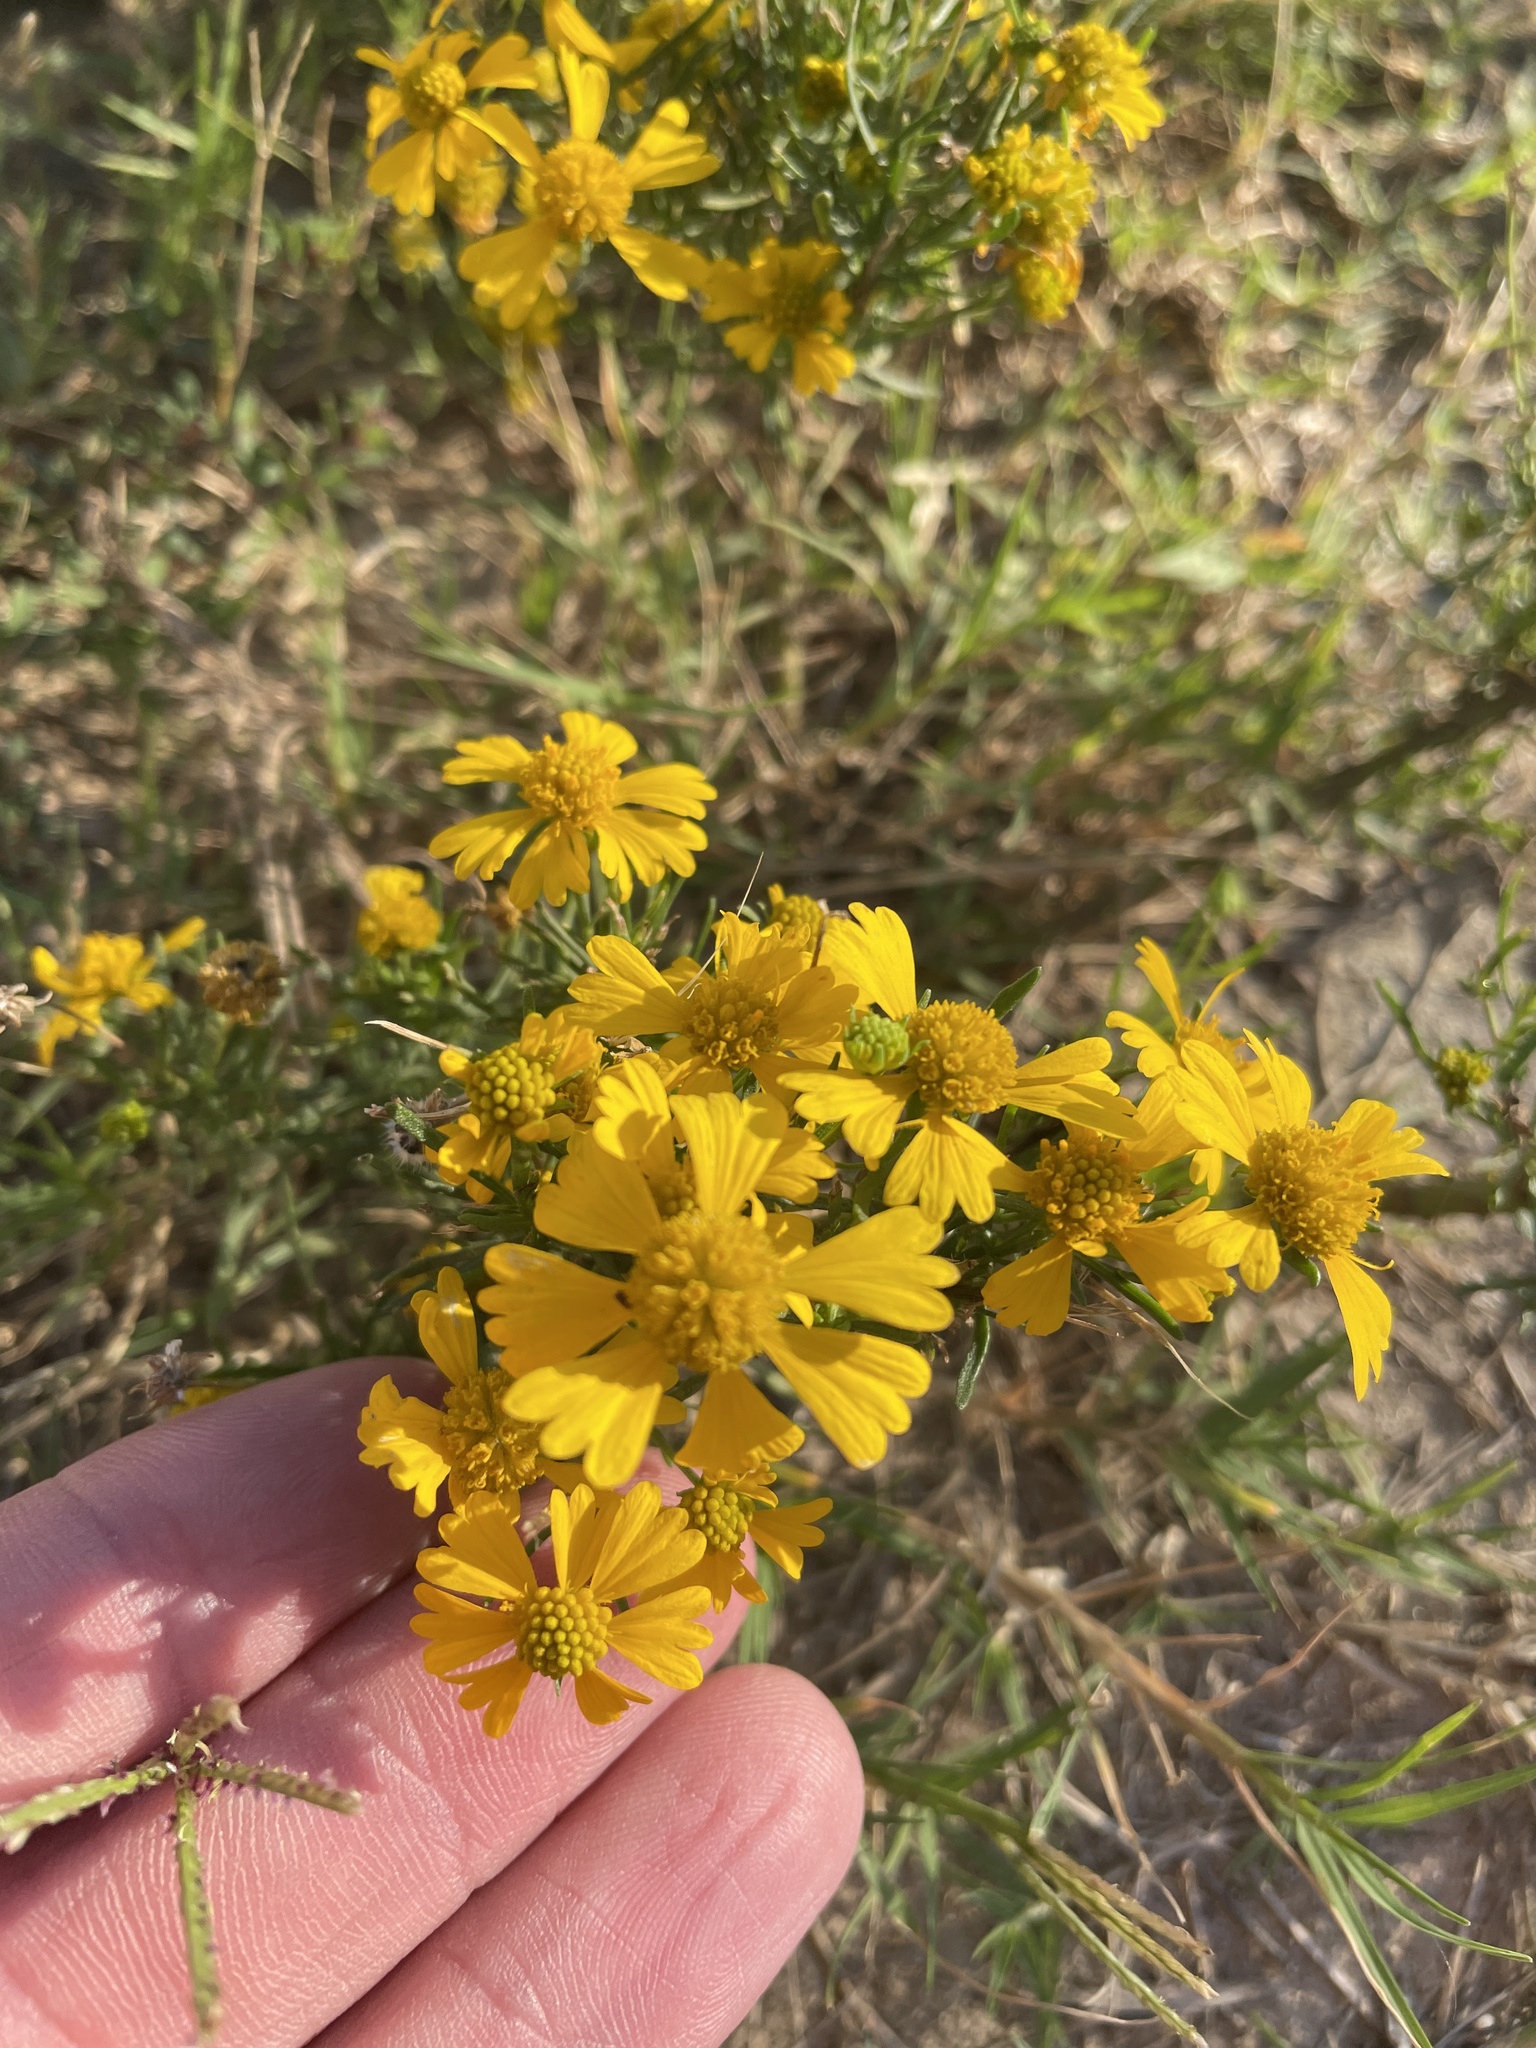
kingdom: Plantae
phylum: Tracheophyta
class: Magnoliopsida
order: Asterales
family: Asteraceae
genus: Helenium
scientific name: Helenium amarum
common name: Bitter sneezeweed
